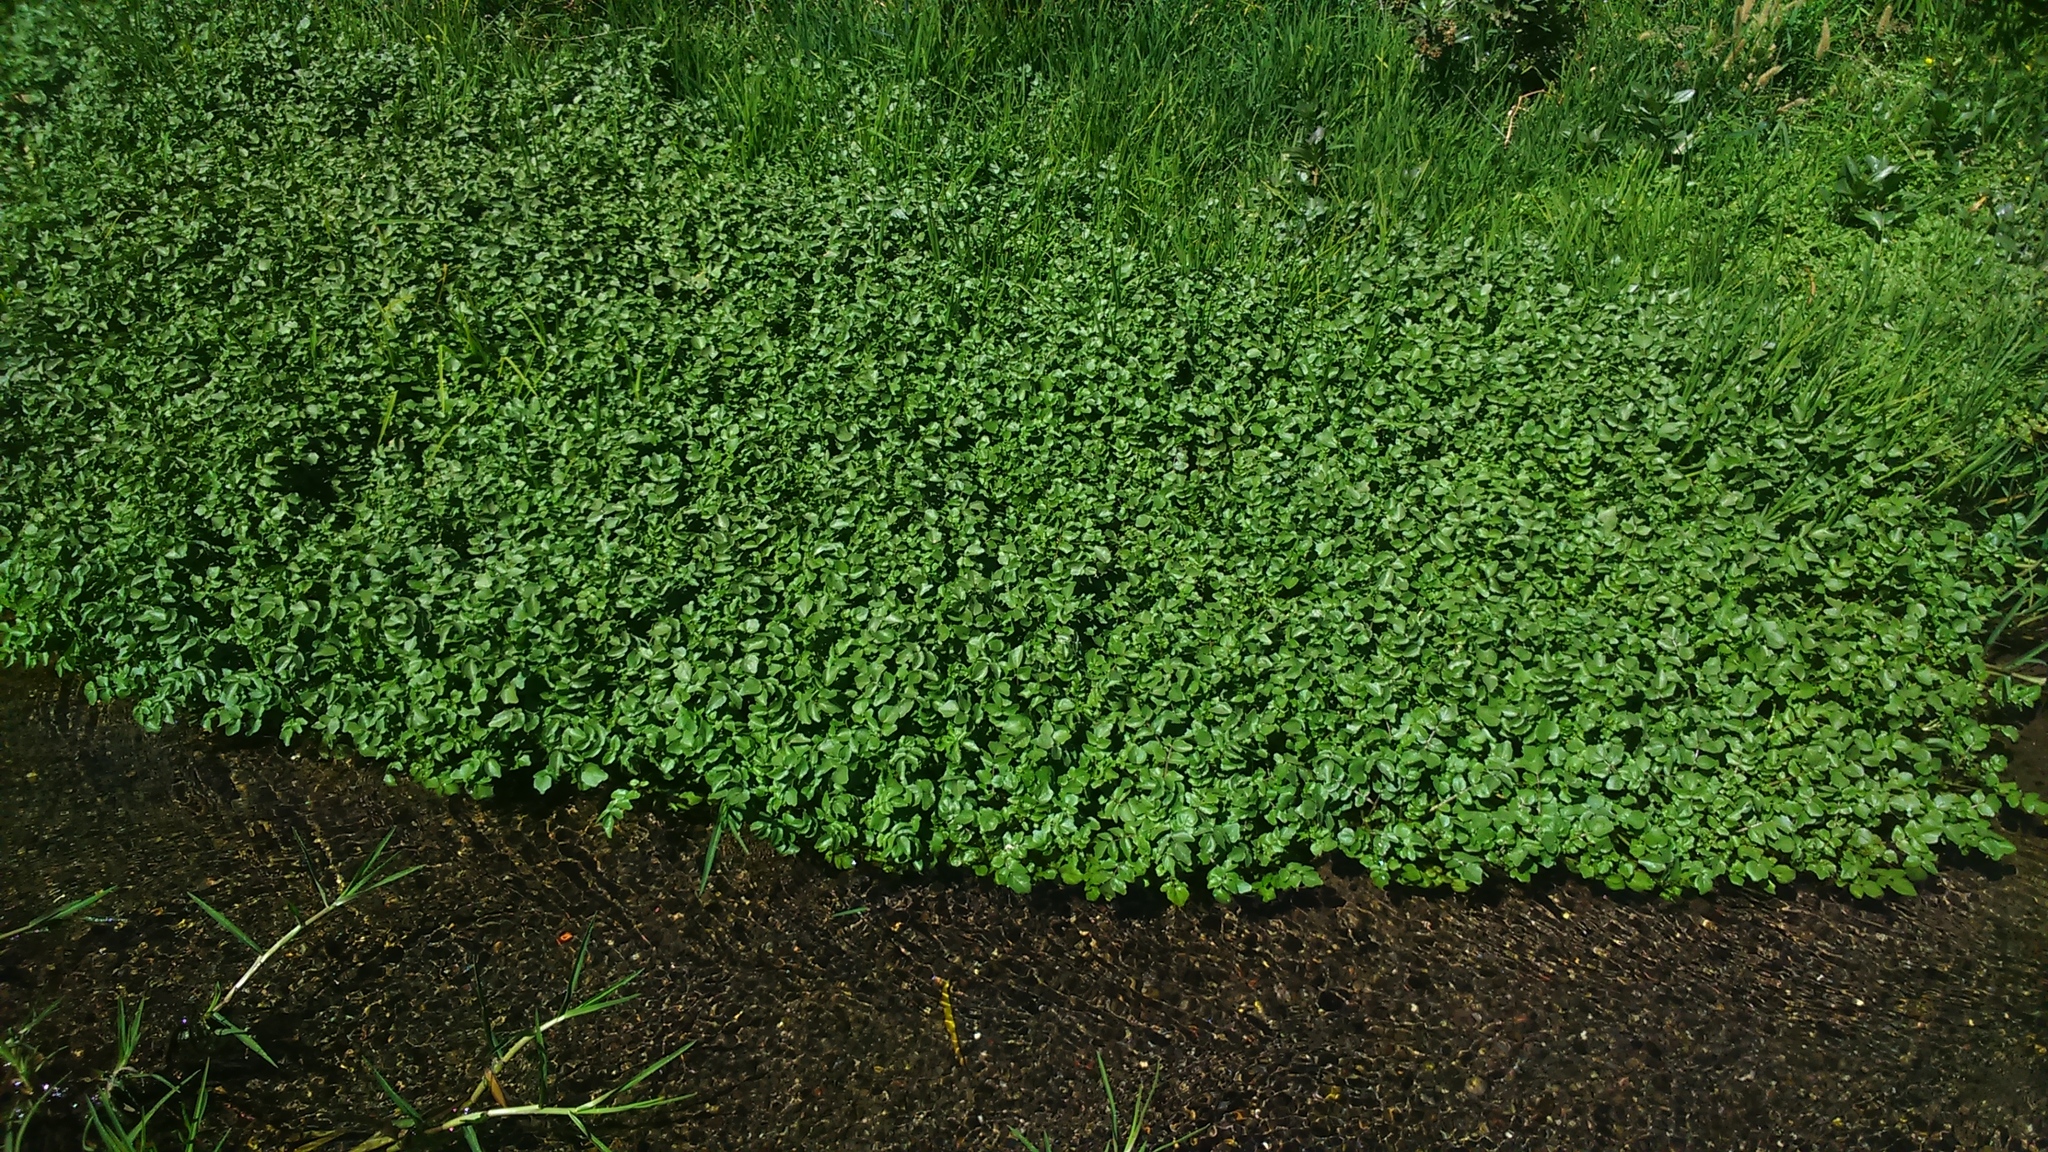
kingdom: Plantae
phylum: Tracheophyta
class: Magnoliopsida
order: Brassicales
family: Brassicaceae
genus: Nasturtium
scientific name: Nasturtium officinale
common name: Watercress
